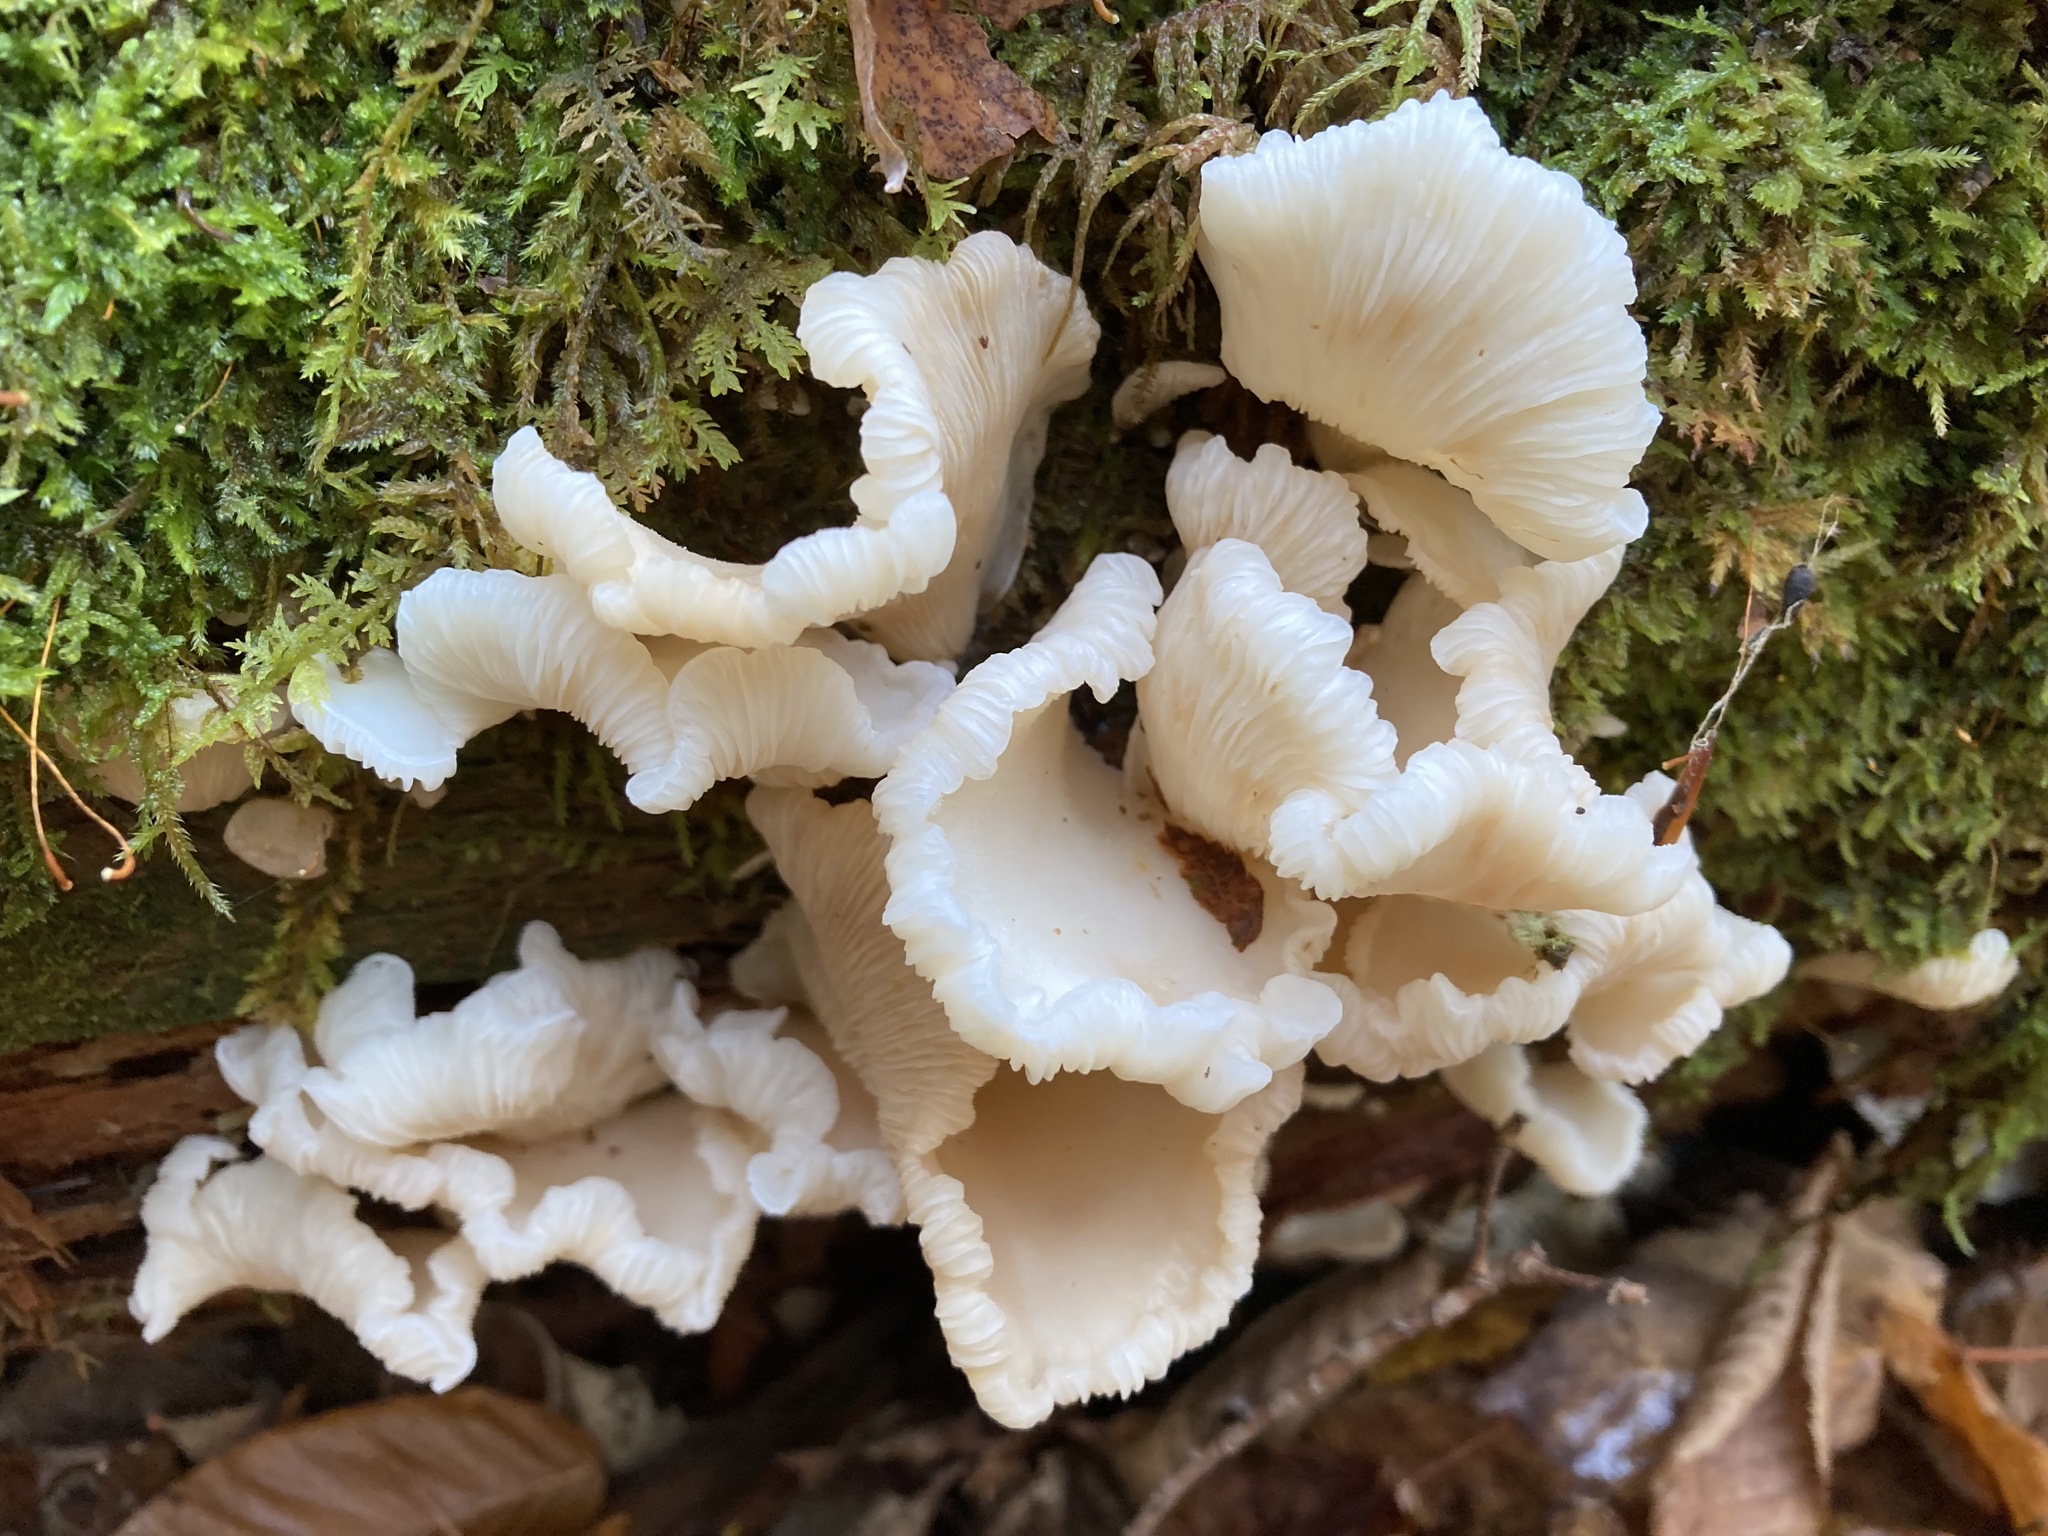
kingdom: Fungi
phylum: Basidiomycota
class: Agaricomycetes
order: Agaricales
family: Marasmiaceae
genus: Pleurocybella
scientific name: Pleurocybella porrigens
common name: Angel's wings
